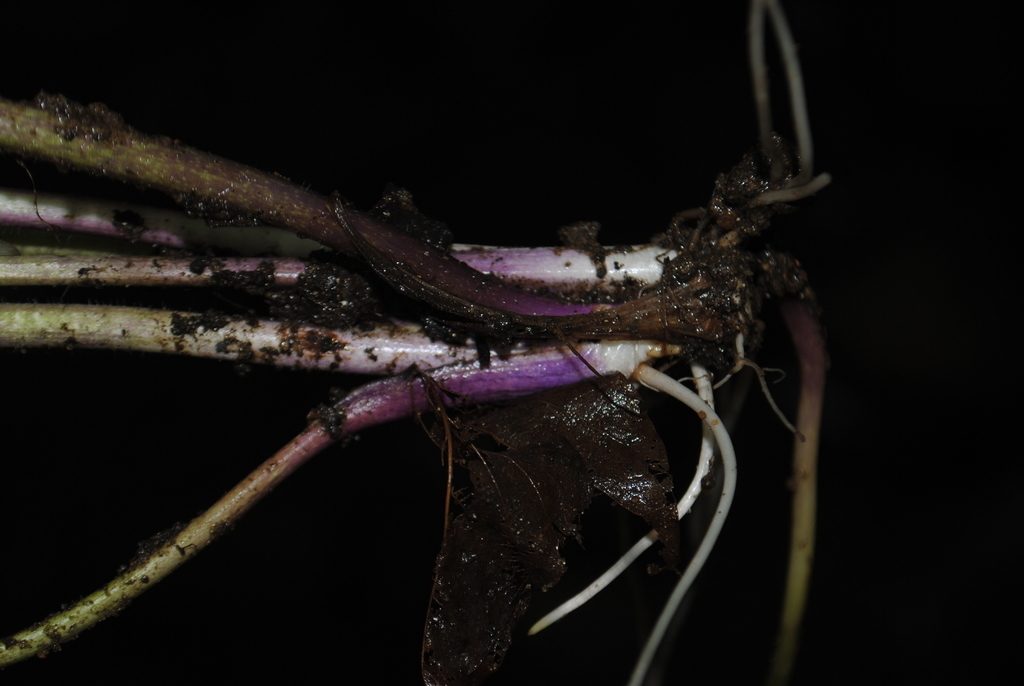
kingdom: Plantae
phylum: Tracheophyta
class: Magnoliopsida
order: Ranunculales
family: Ranunculaceae
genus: Ranunculus
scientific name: Ranunculus hispidus
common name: Bristly buttercup
